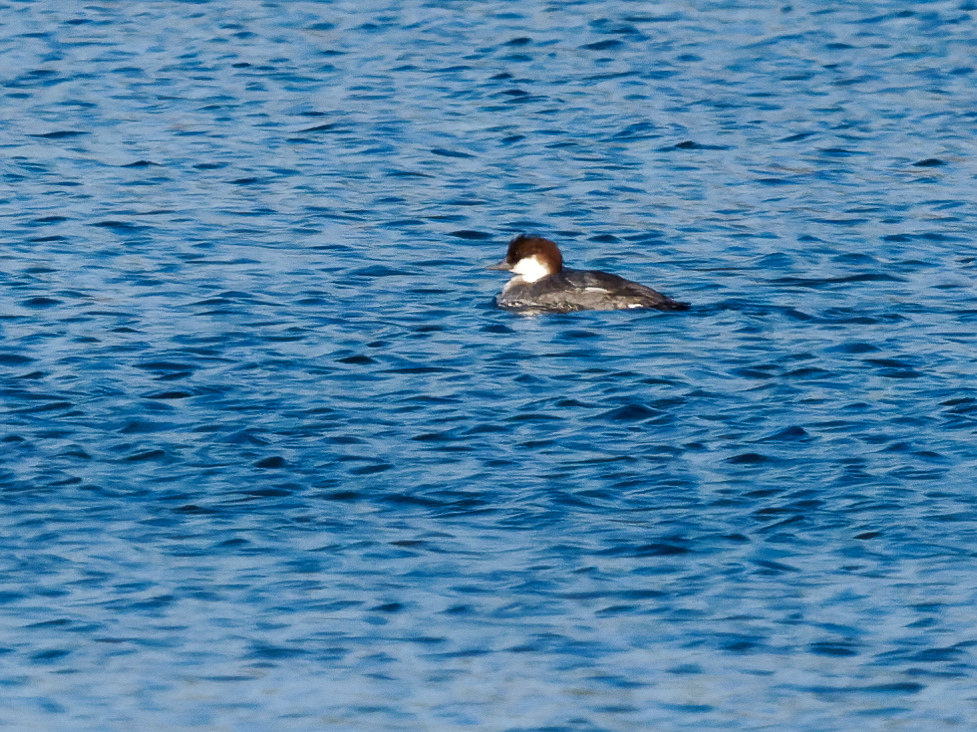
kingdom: Animalia
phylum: Chordata
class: Aves
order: Anseriformes
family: Anatidae
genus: Mergellus
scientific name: Mergellus albellus
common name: Smew
